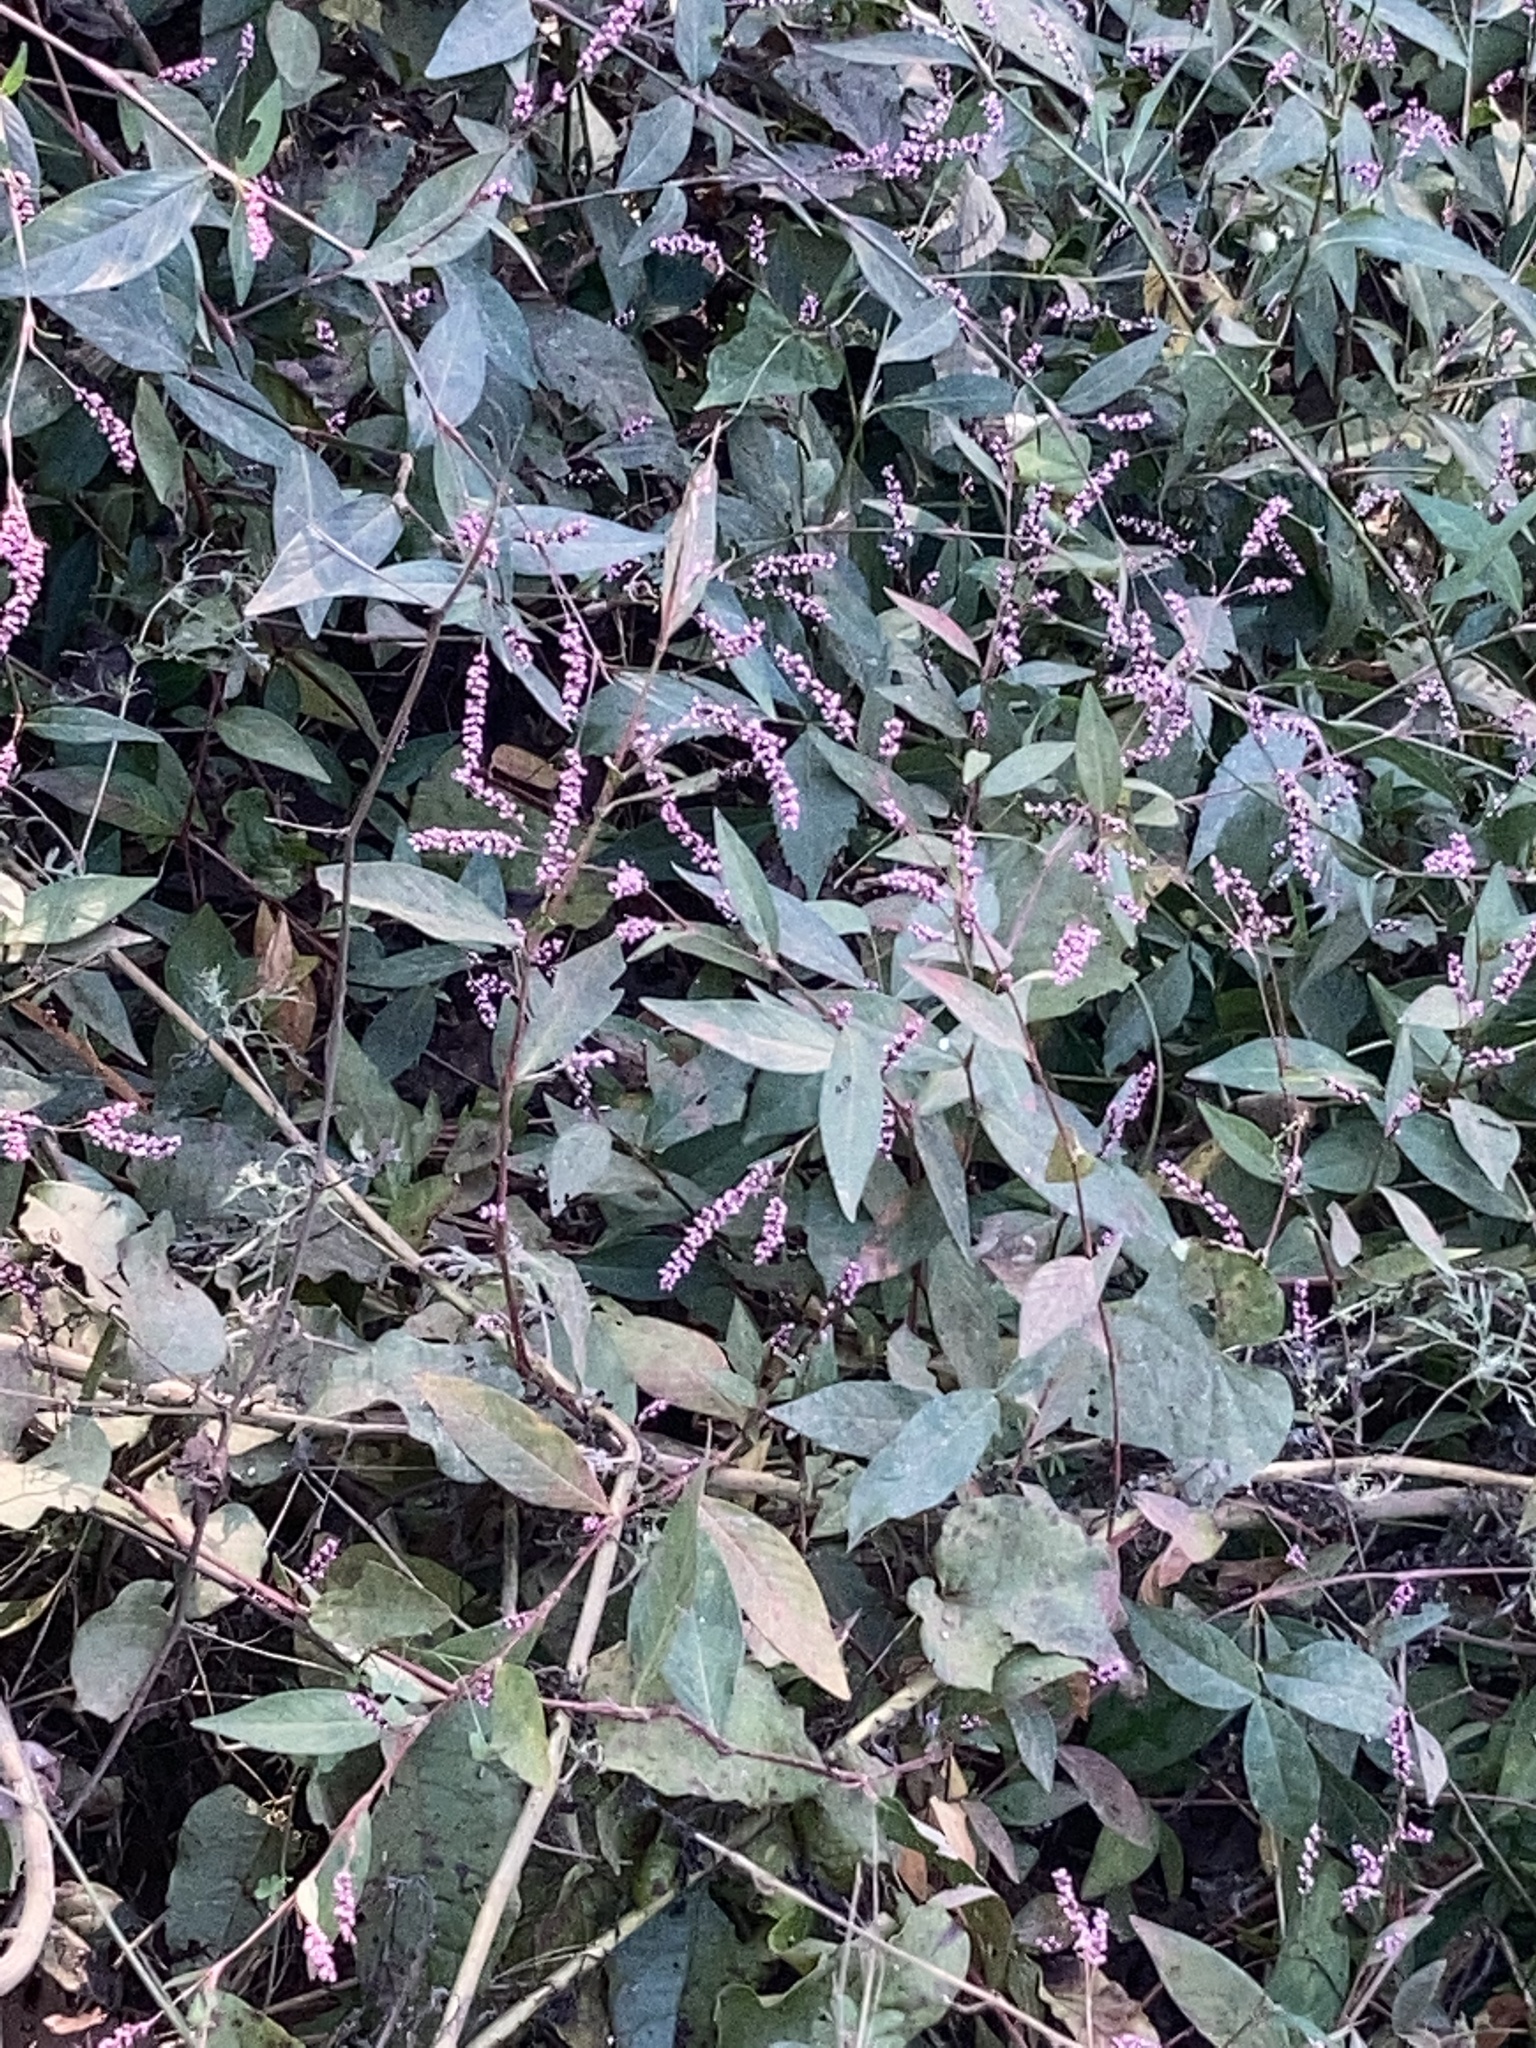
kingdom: Plantae
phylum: Tracheophyta
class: Magnoliopsida
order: Caryophyllales
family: Polygonaceae
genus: Persicaria
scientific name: Persicaria longiseta
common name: Bristly lady's-thumb
